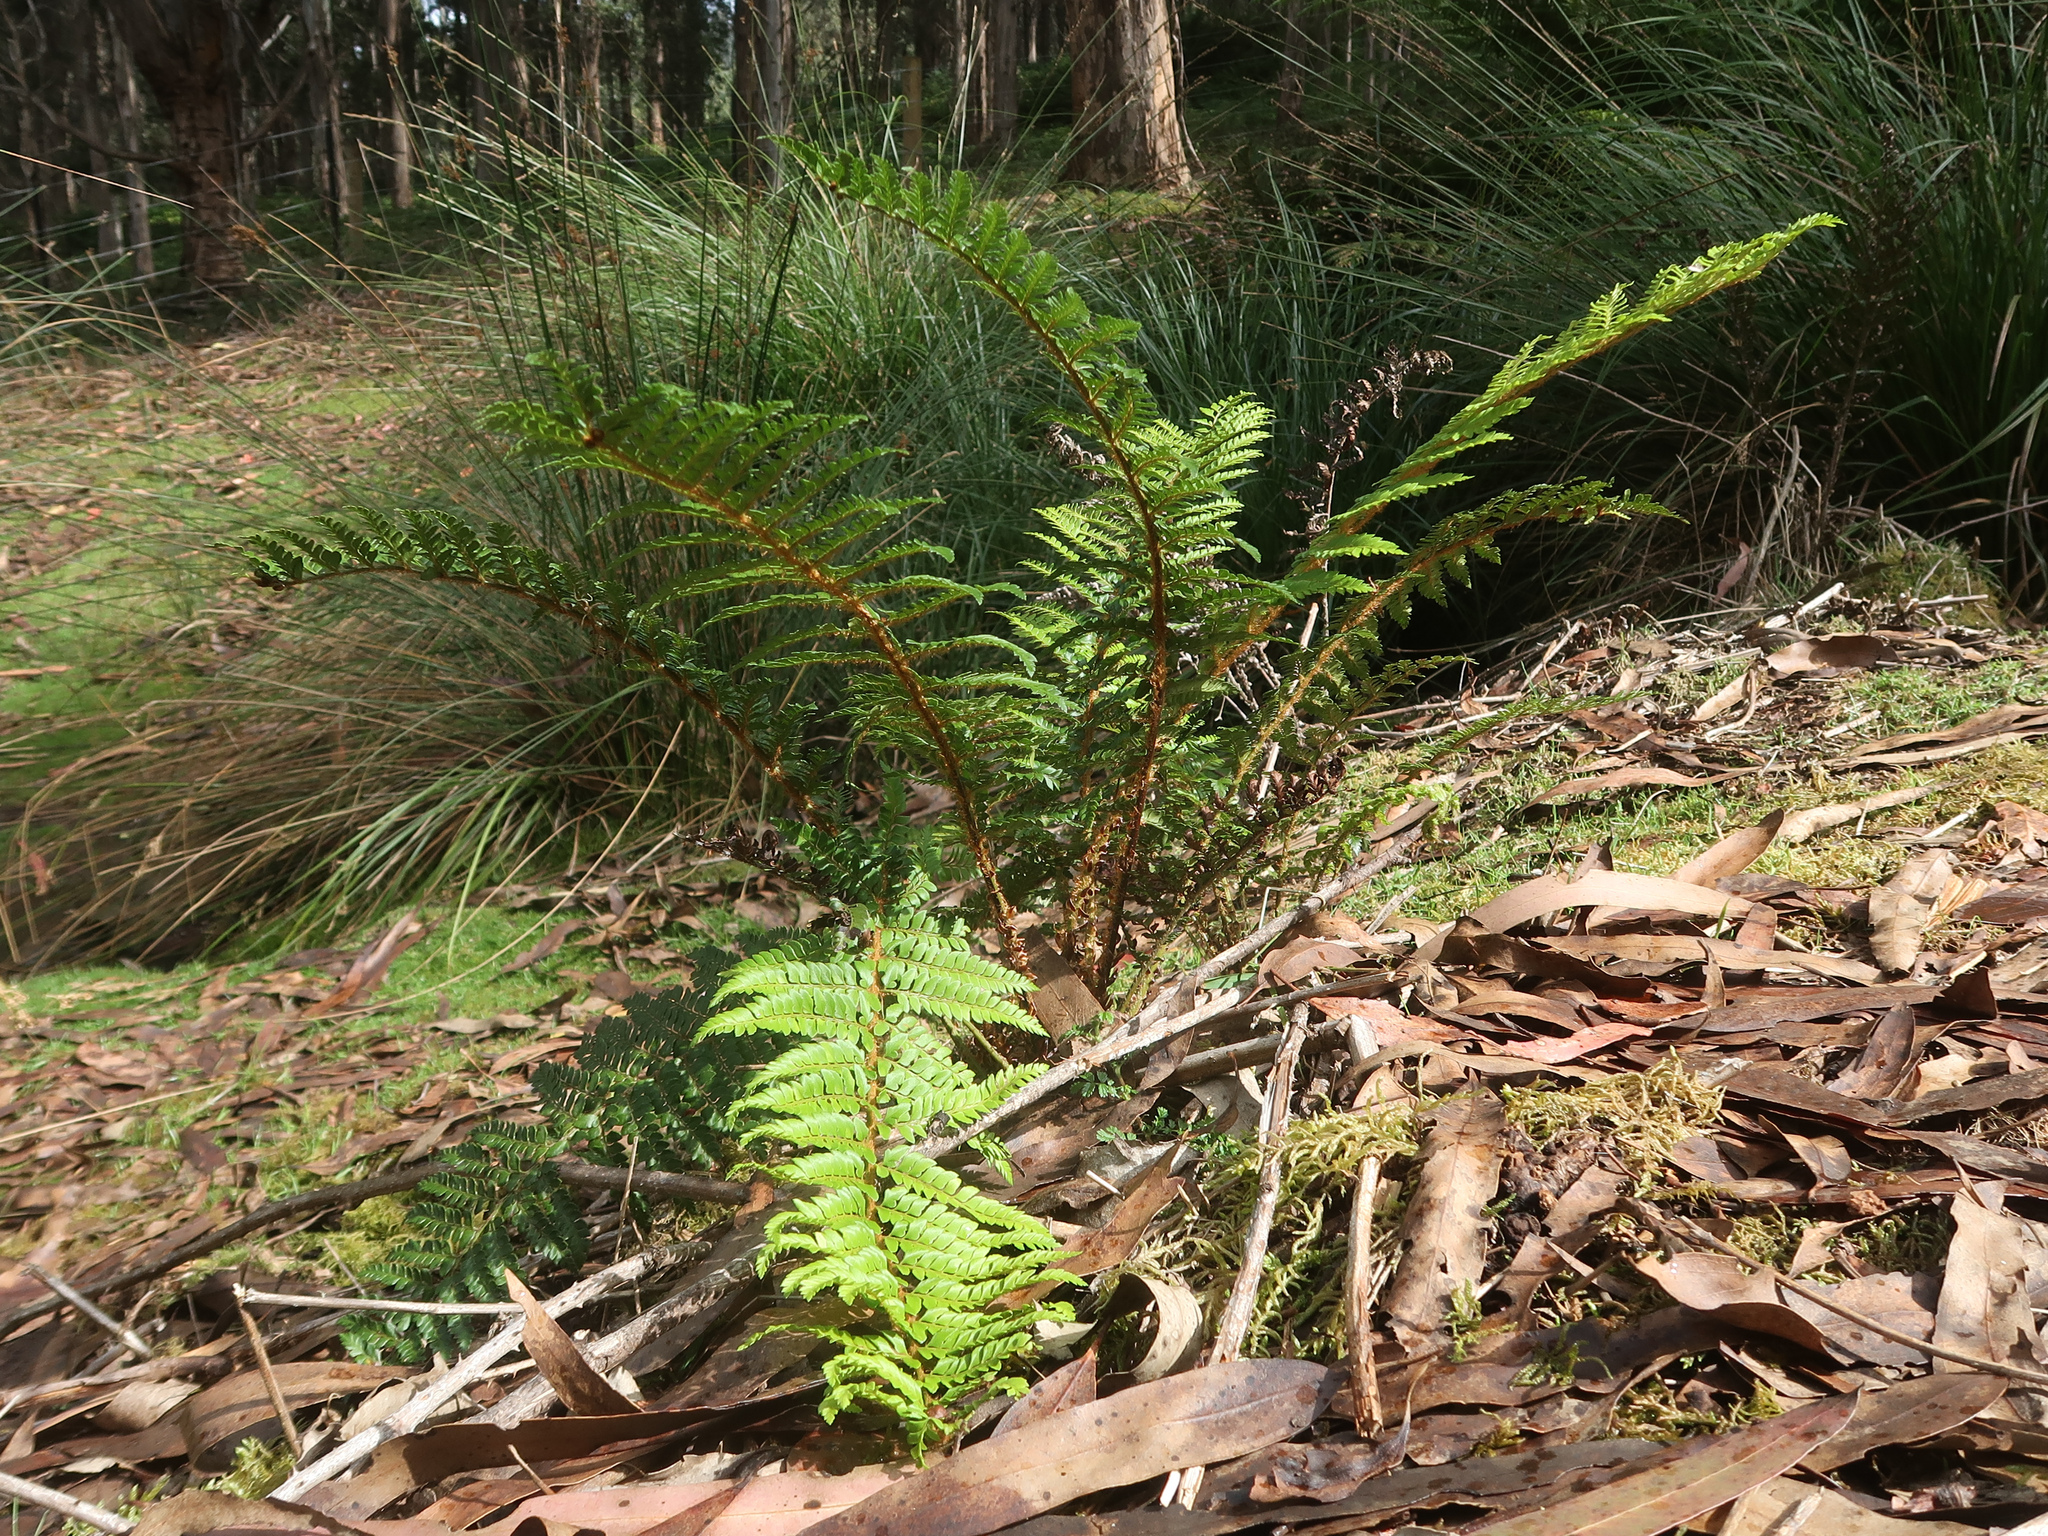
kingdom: Plantae
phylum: Tracheophyta
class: Polypodiopsida
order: Polypodiales
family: Dryopteridaceae
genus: Polystichum
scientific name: Polystichum proliferum
